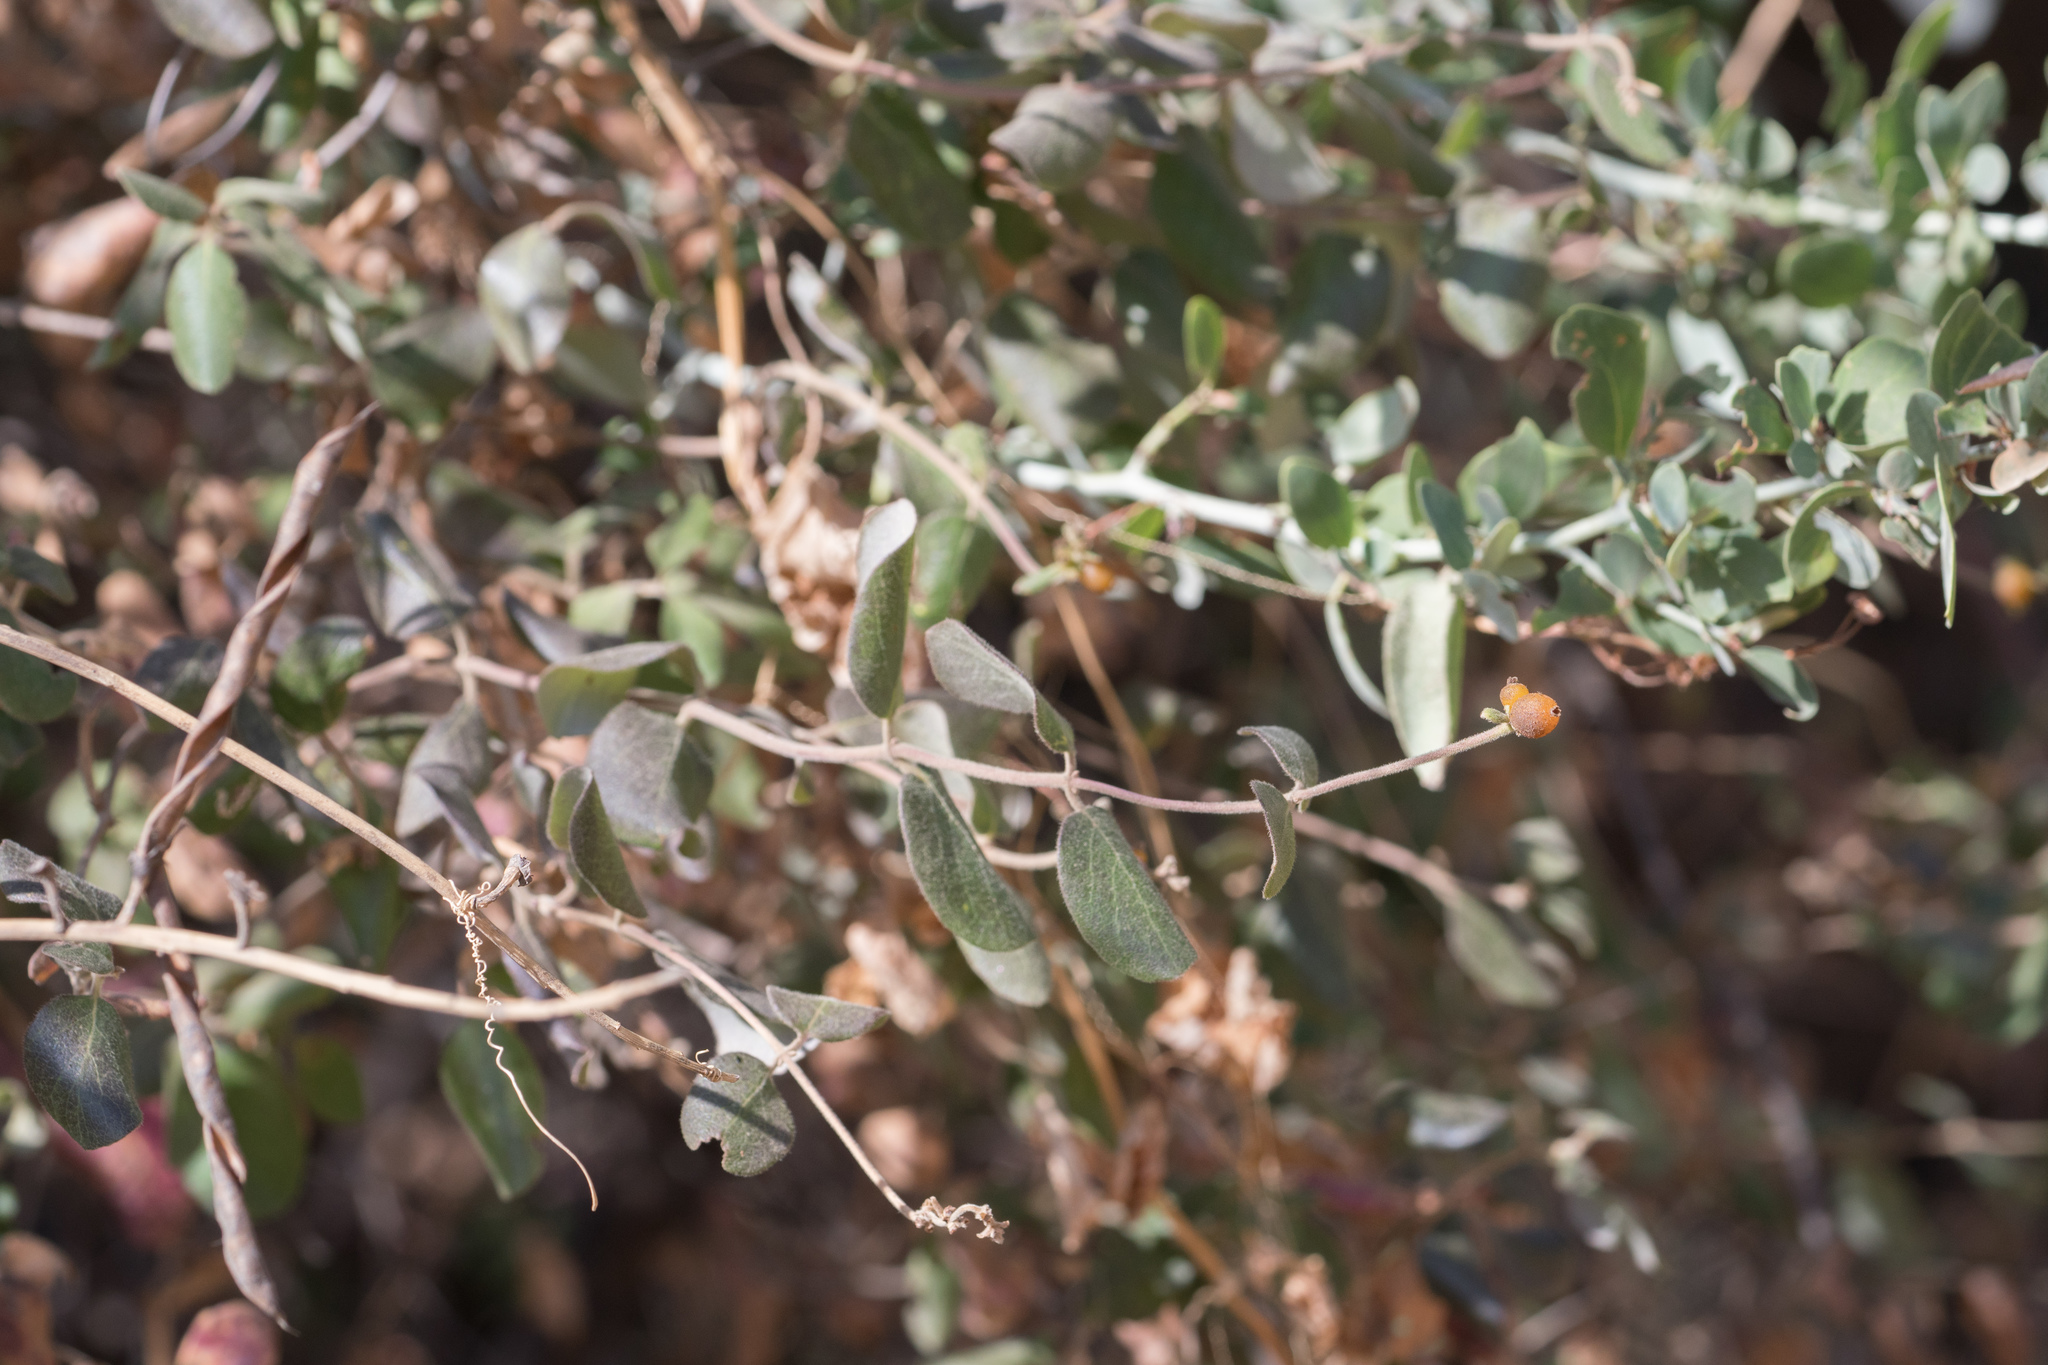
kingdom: Plantae
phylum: Tracheophyta
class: Magnoliopsida
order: Dipsacales
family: Caprifoliaceae
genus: Lonicera
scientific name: Lonicera subspicata
